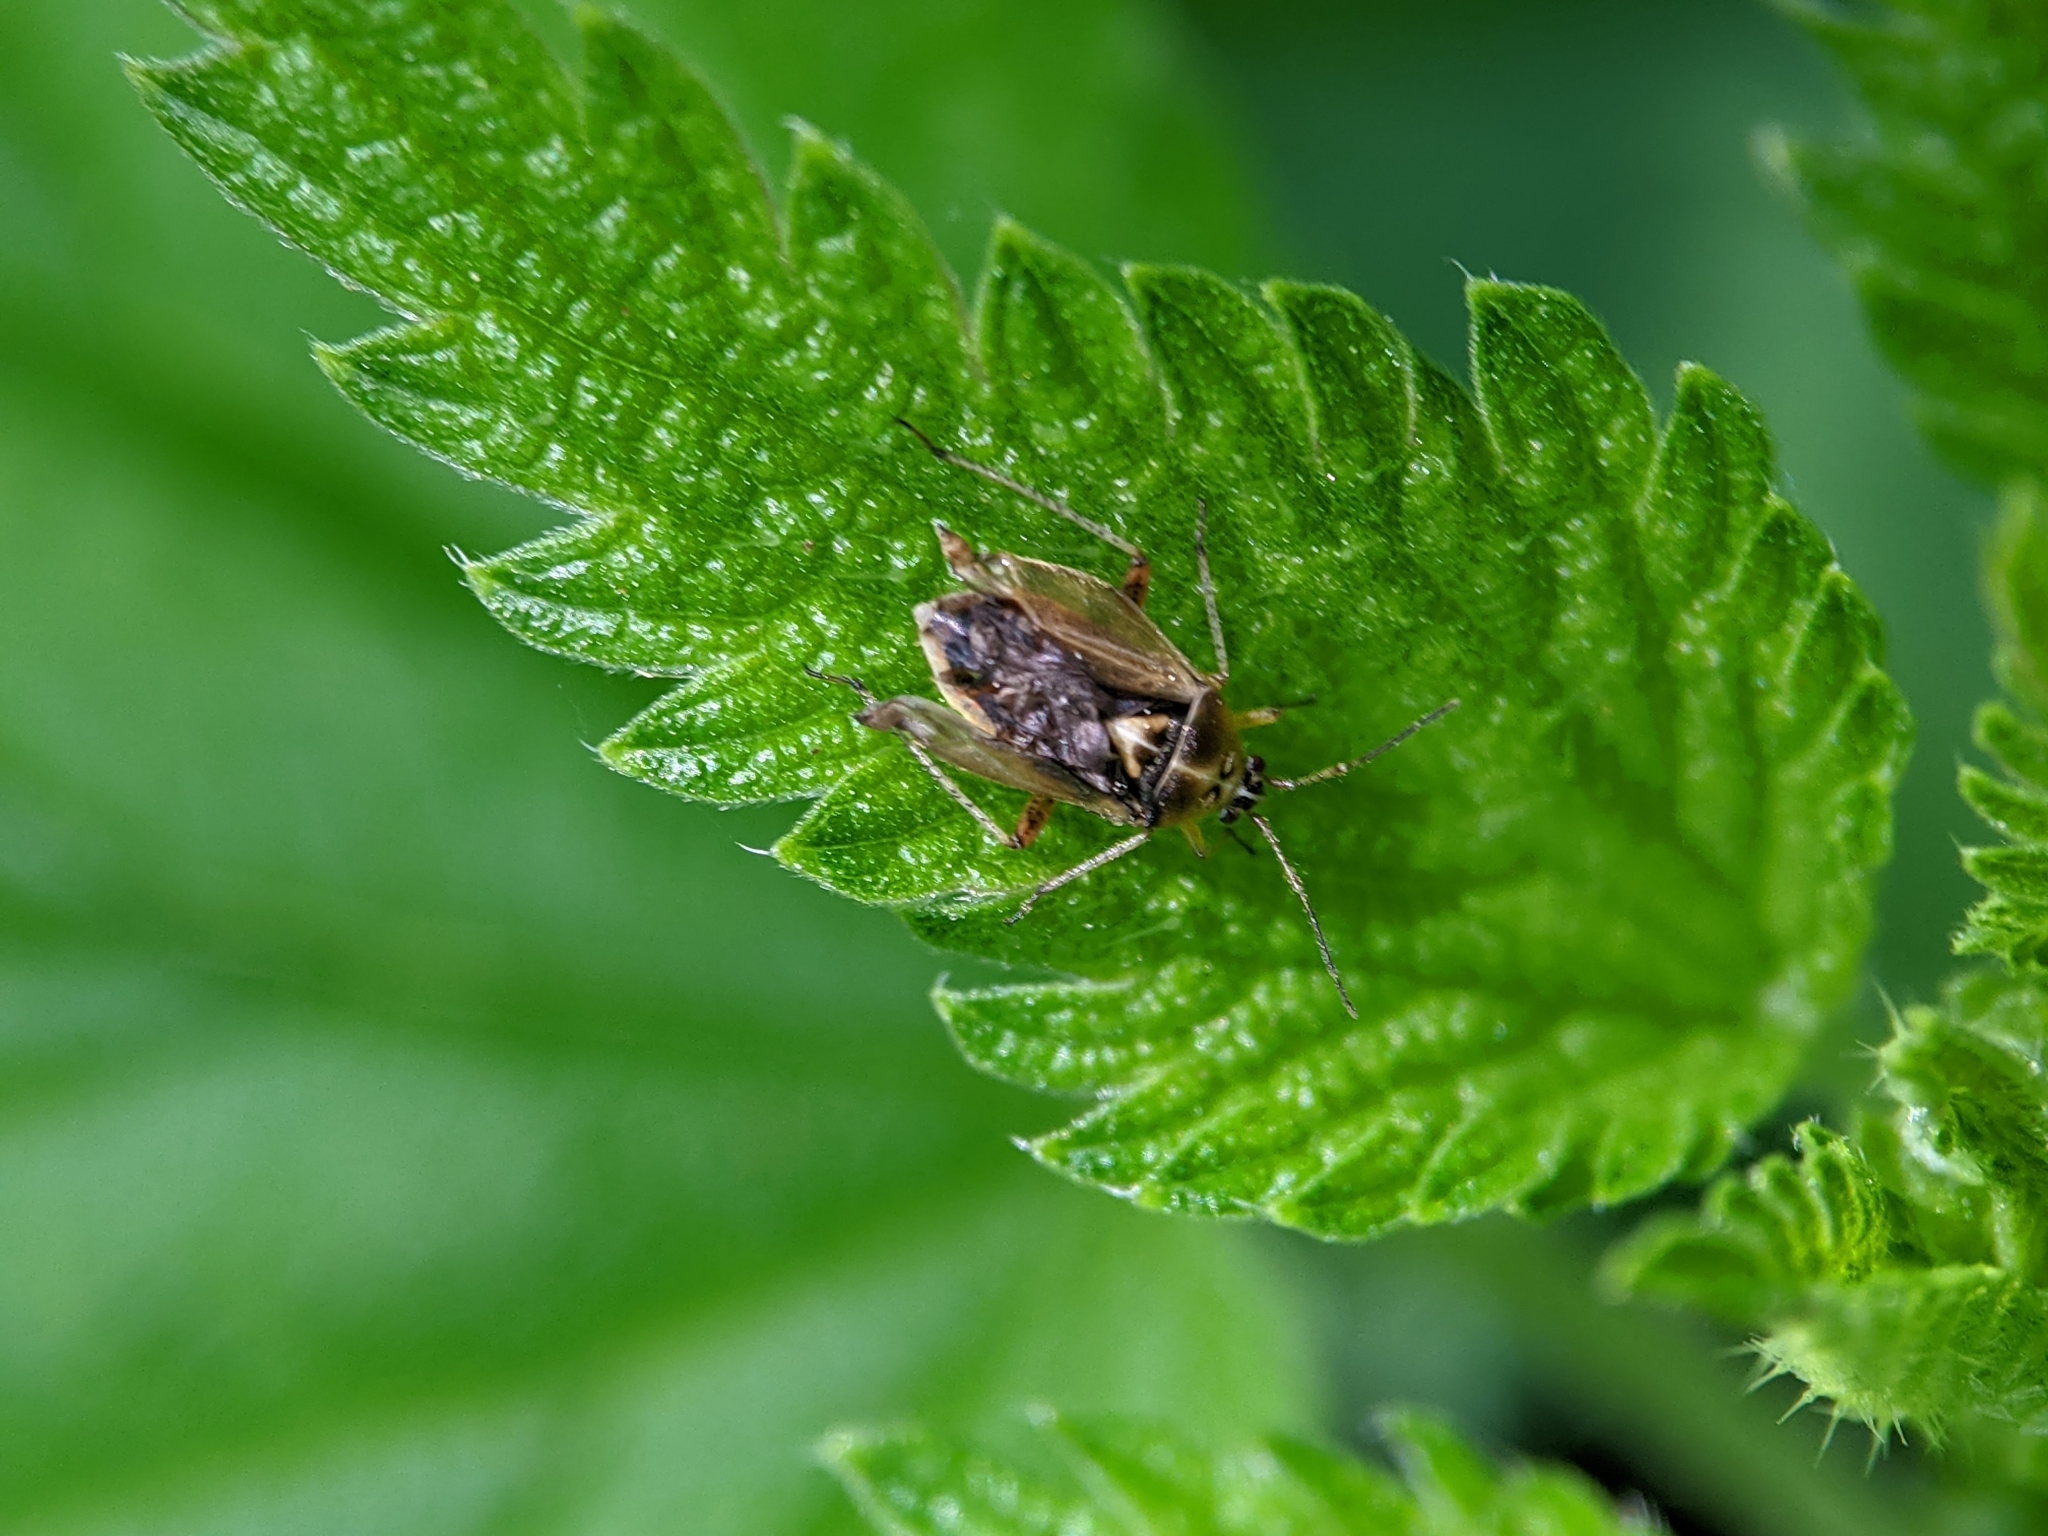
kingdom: Animalia
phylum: Arthropoda
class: Insecta
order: Hemiptera
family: Miridae
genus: Harpocera
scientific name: Harpocera thoracica
